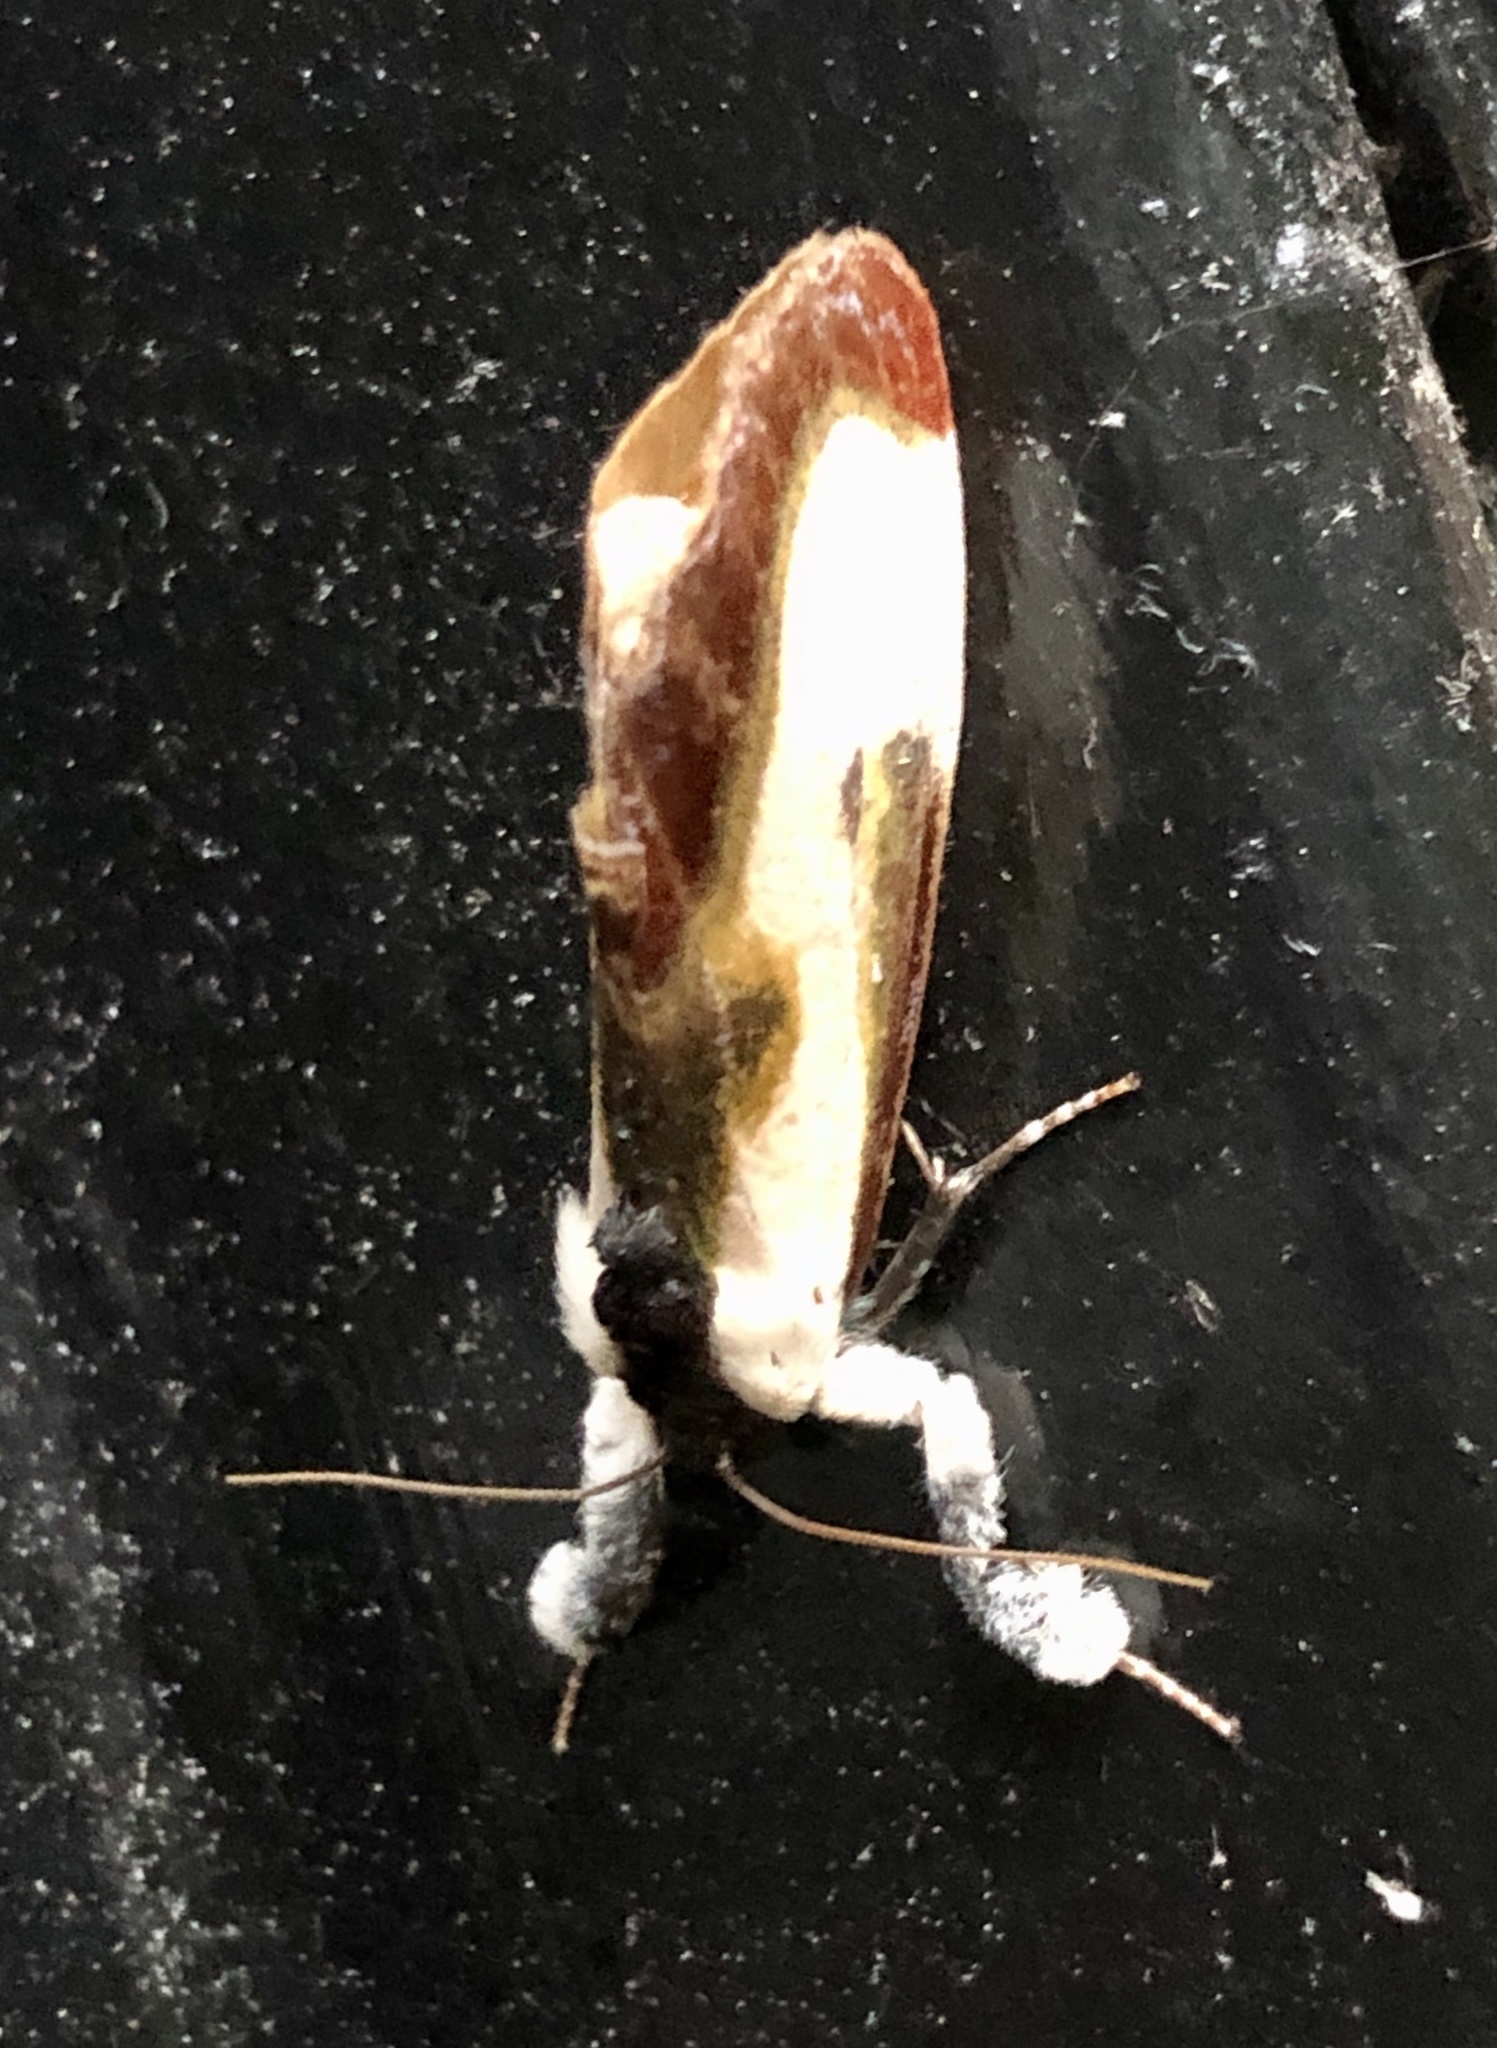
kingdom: Animalia
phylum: Arthropoda
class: Insecta
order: Lepidoptera
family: Noctuidae
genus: Eudryas
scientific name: Eudryas grata
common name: Beautiful wood-nymph
